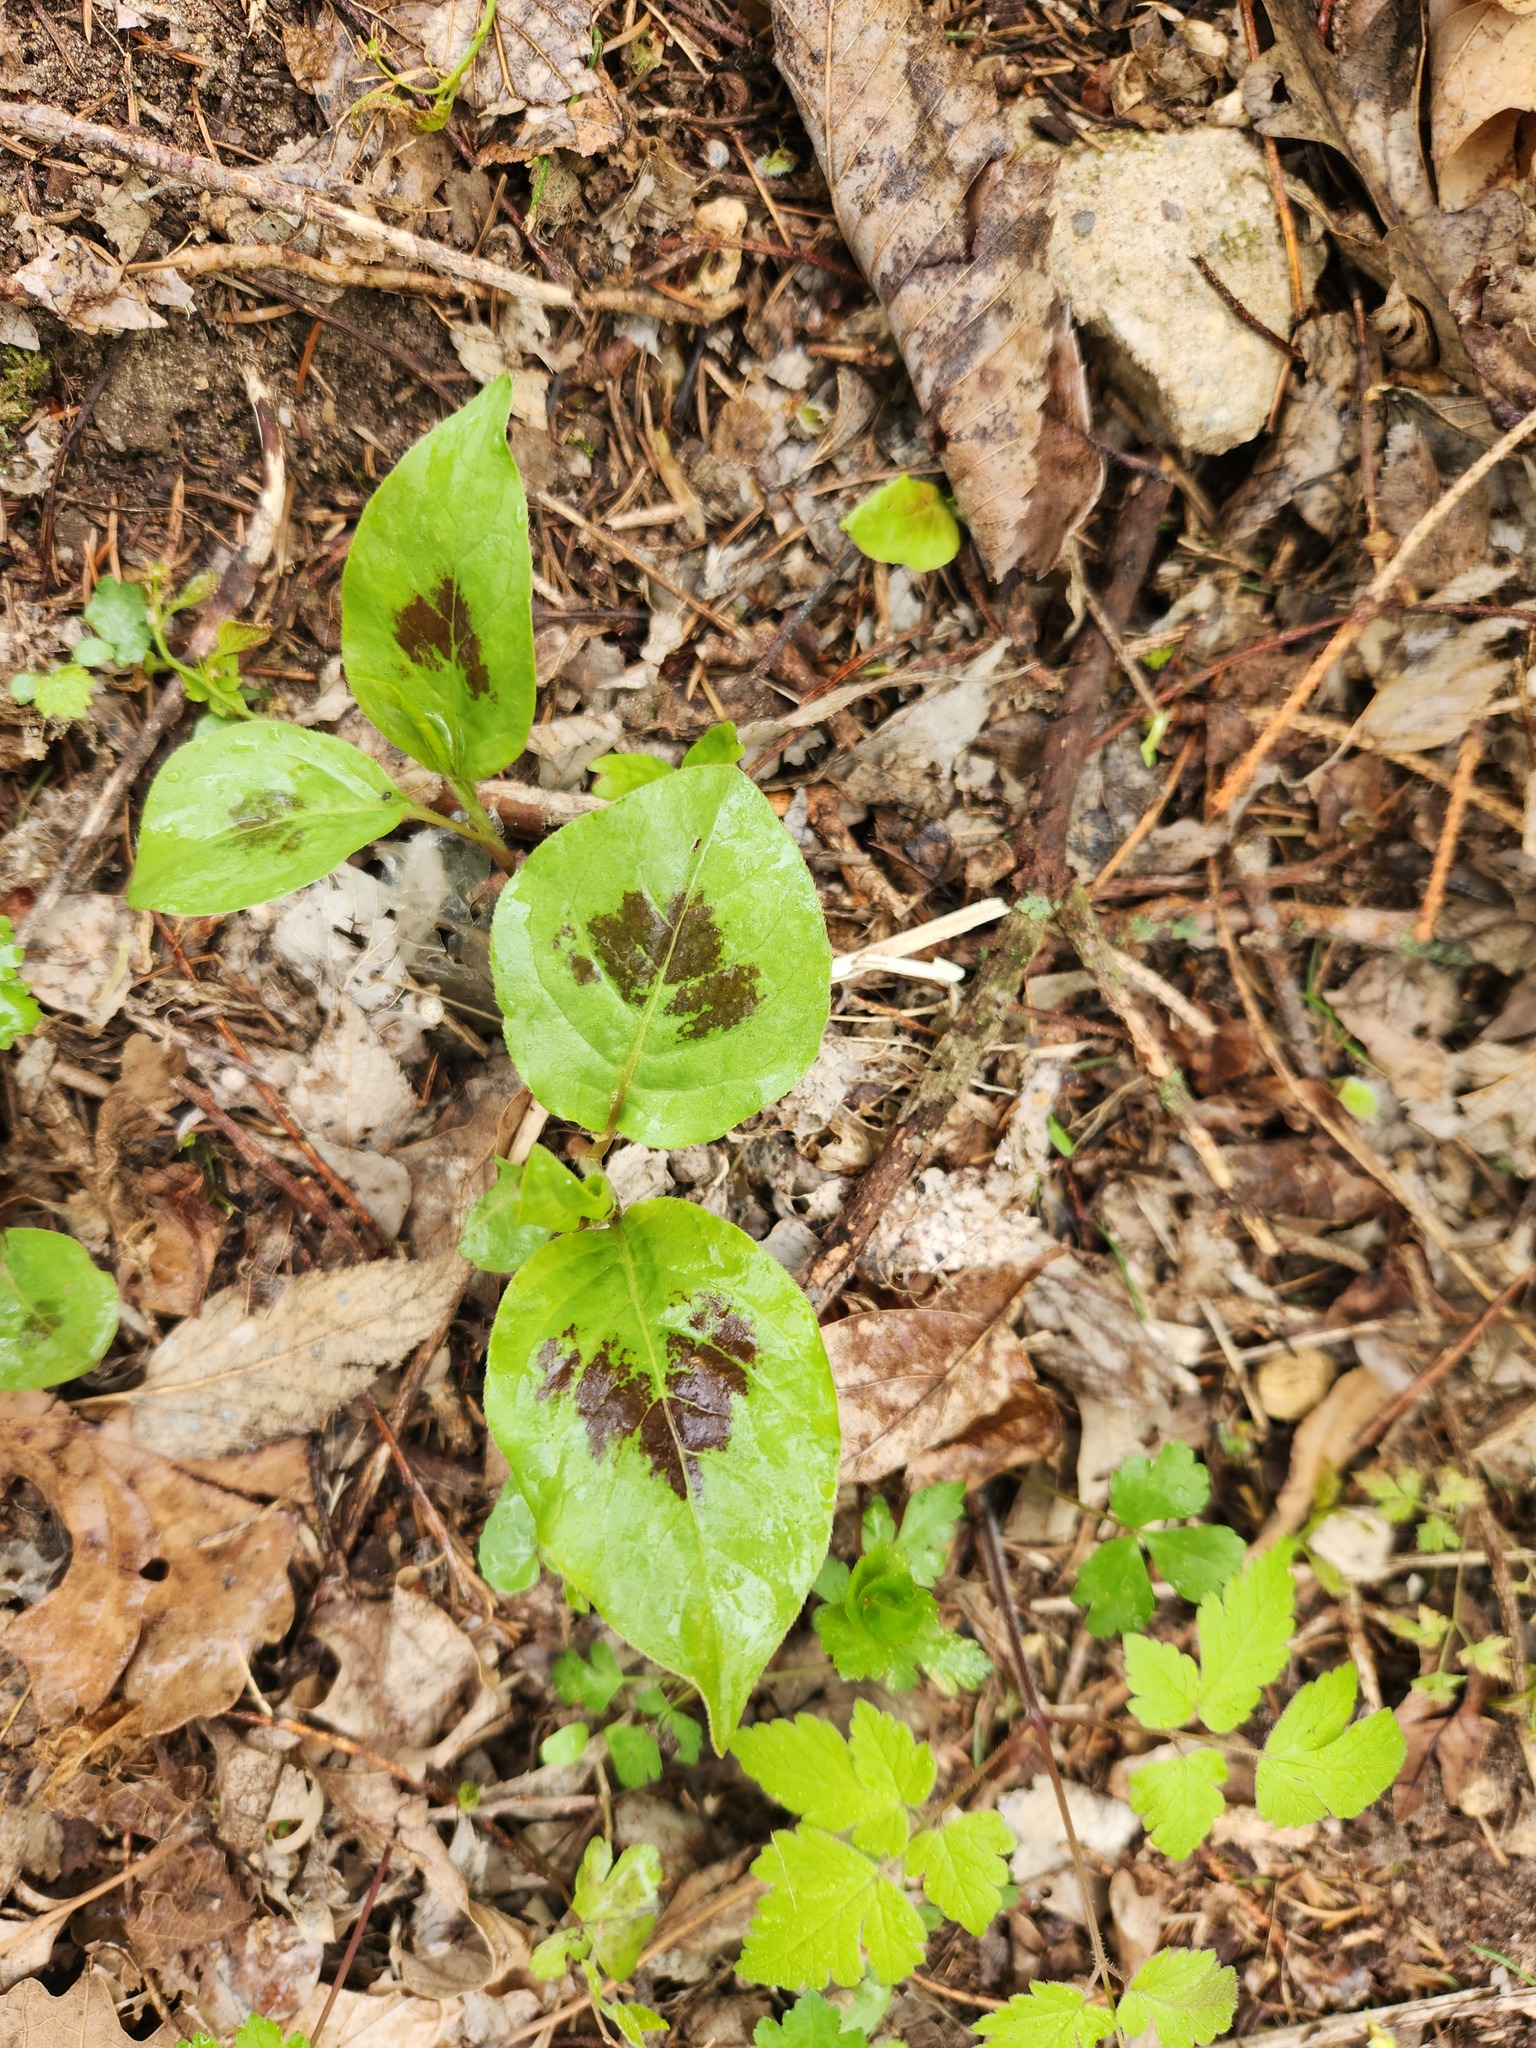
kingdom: Plantae
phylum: Tracheophyta
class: Magnoliopsida
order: Caryophyllales
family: Polygonaceae
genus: Persicaria
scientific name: Persicaria virginiana
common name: Jumpseed
